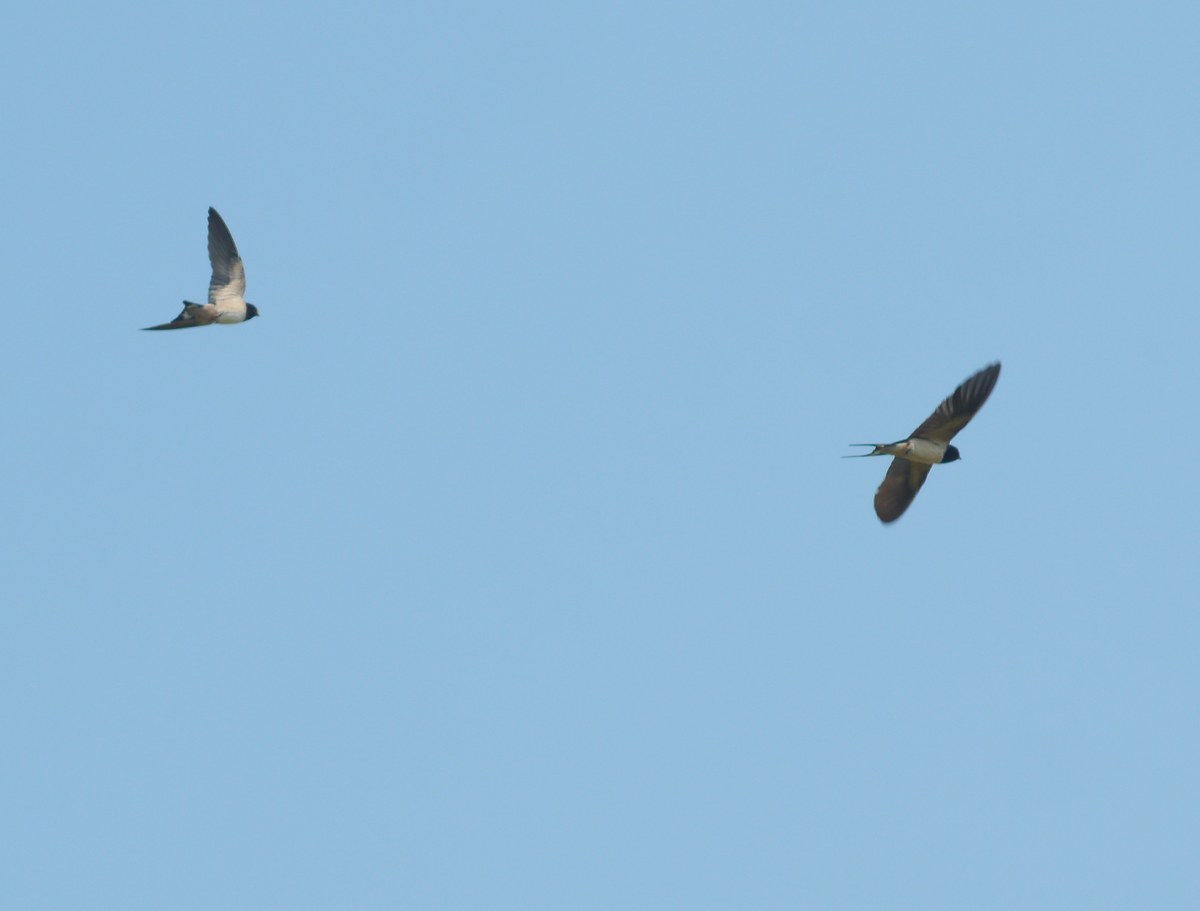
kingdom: Animalia
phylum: Chordata
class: Aves
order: Passeriformes
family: Hirundinidae
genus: Hirundo
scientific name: Hirundo rustica
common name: Barn swallow
